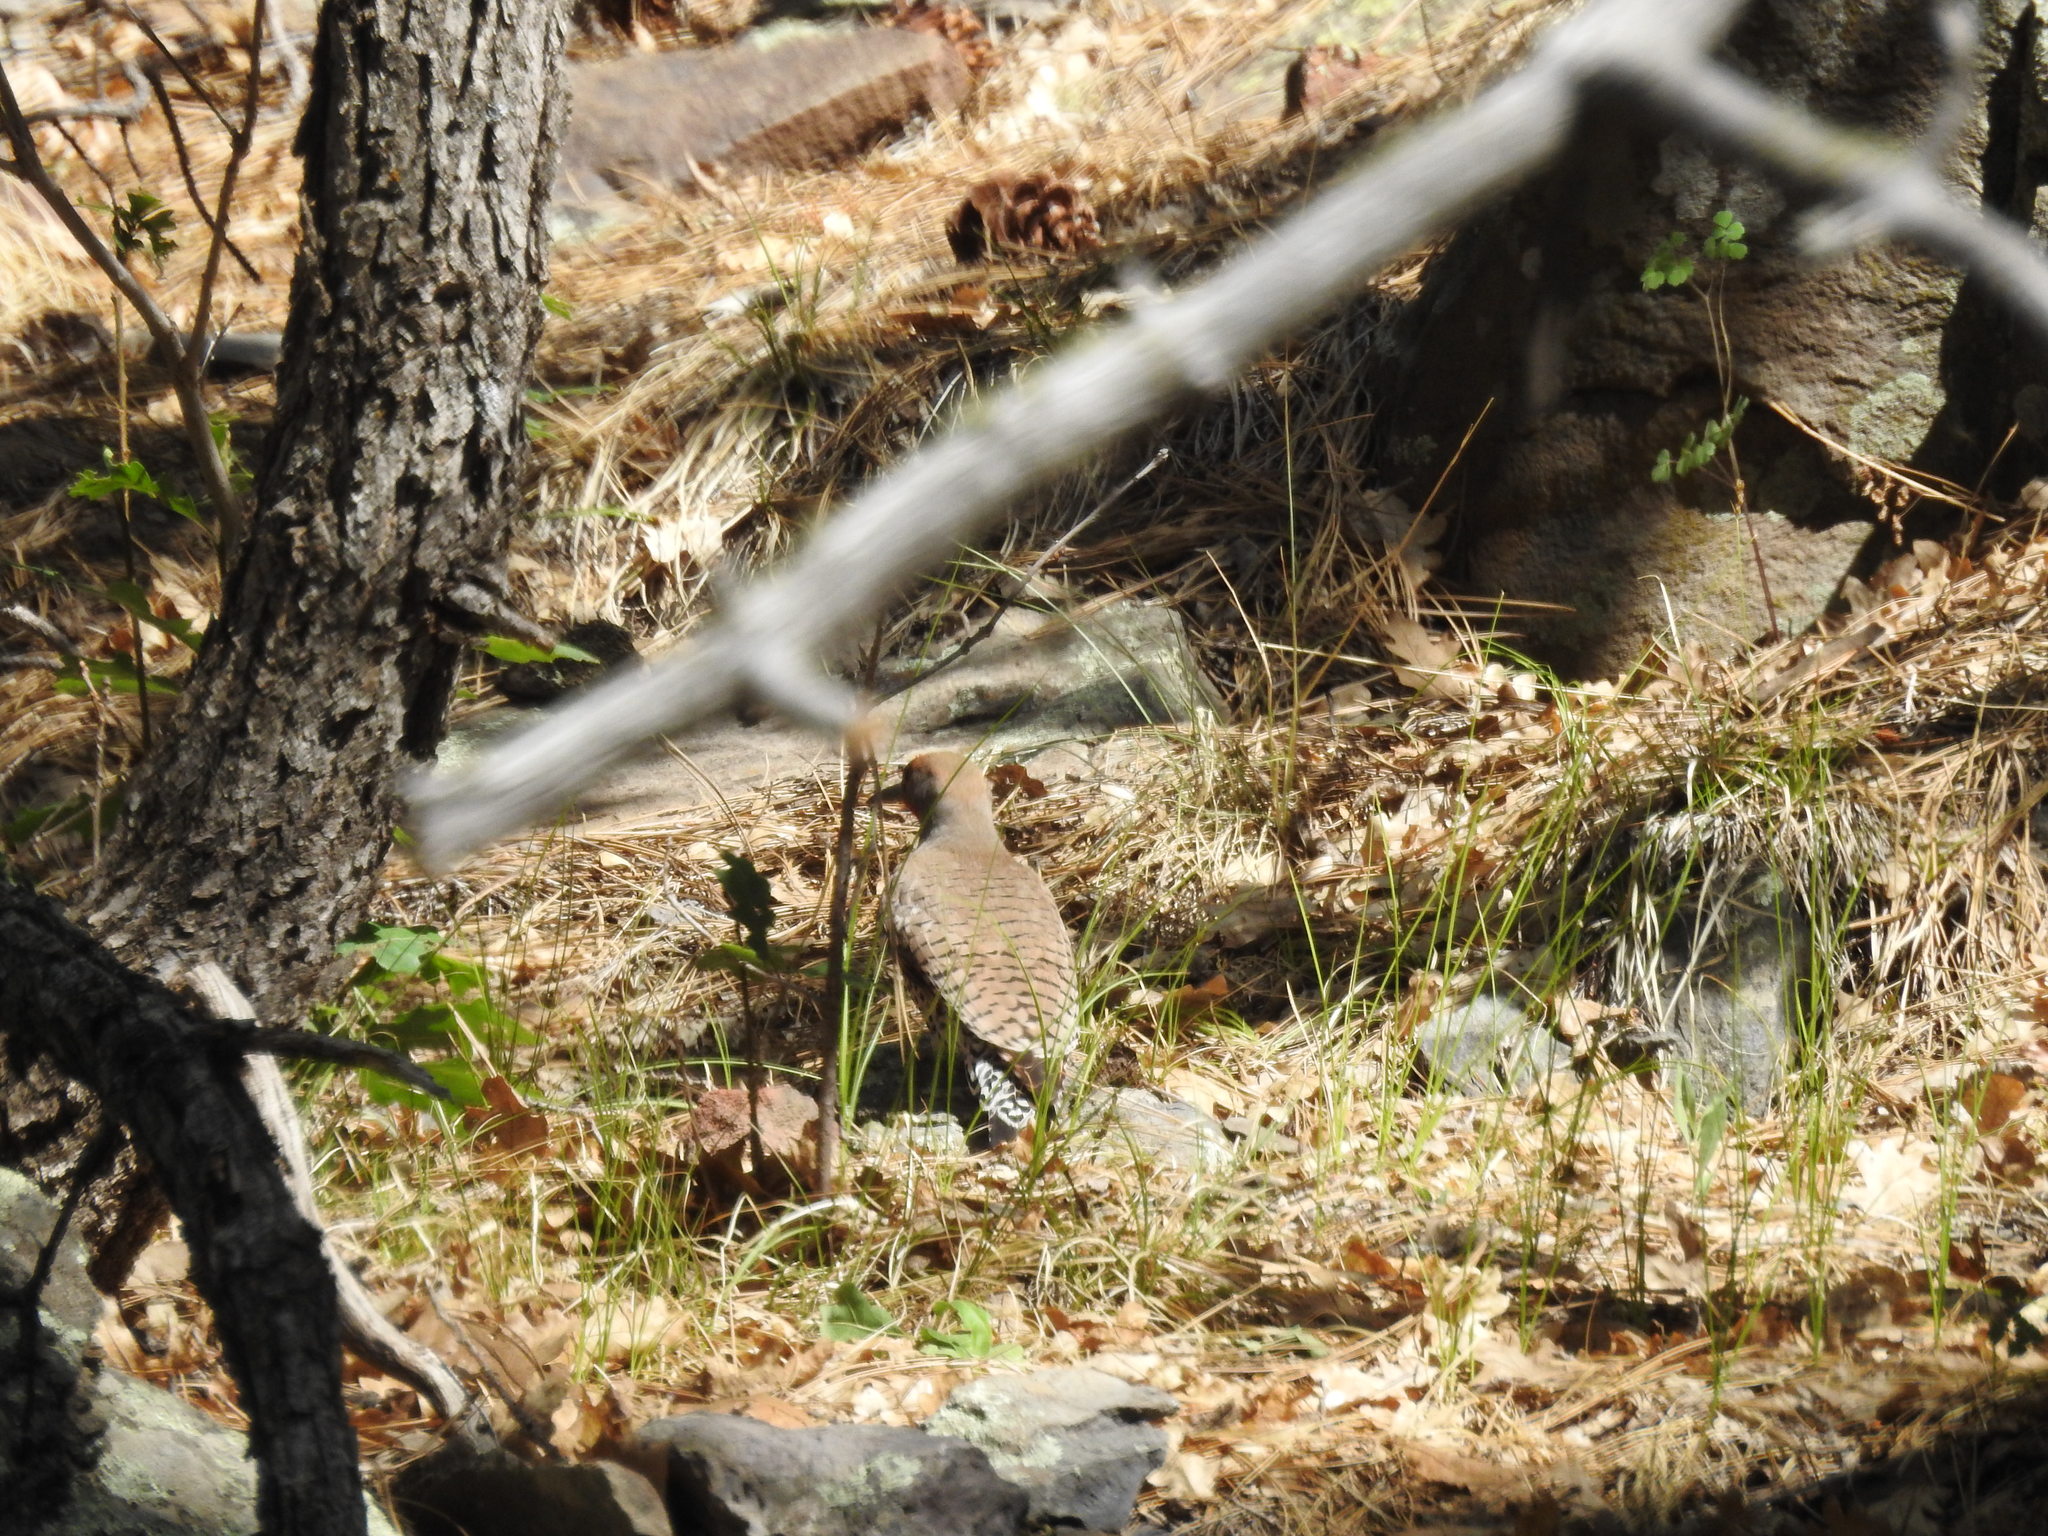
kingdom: Animalia
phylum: Chordata
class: Aves
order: Piciformes
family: Picidae
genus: Colaptes
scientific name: Colaptes auratus
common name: Northern flicker
